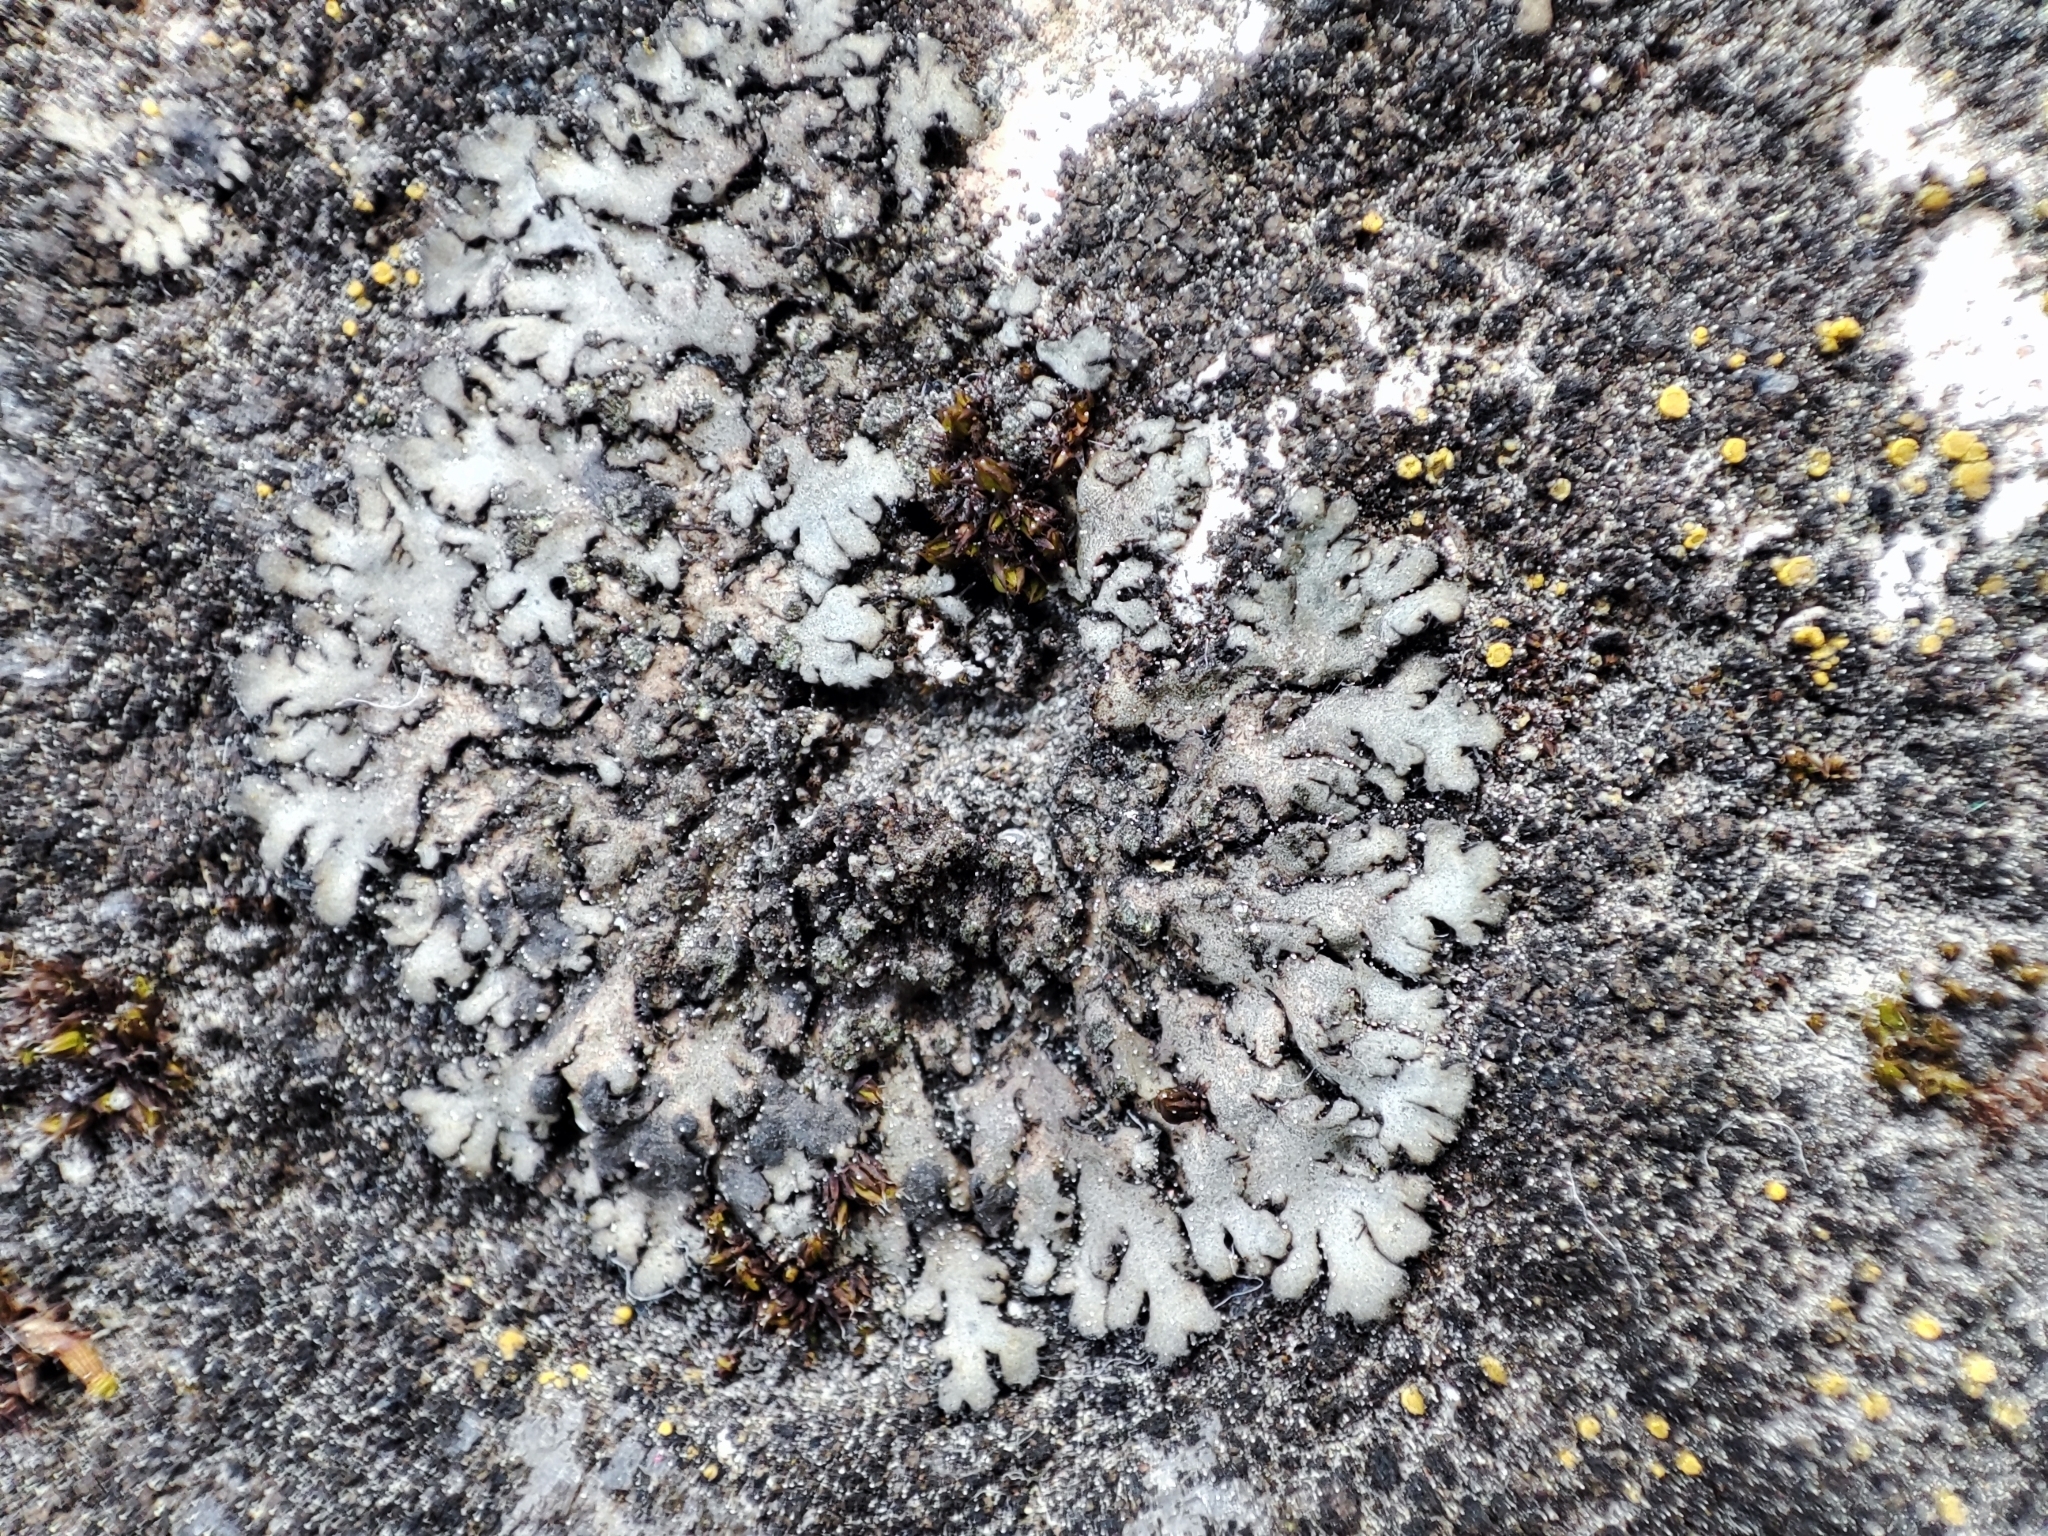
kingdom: Fungi
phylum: Ascomycota
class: Lecanoromycetes
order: Caliciales
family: Physciaceae
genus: Phaeophyscia
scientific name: Phaeophyscia orbicularis
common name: Mealy shadow lichen
